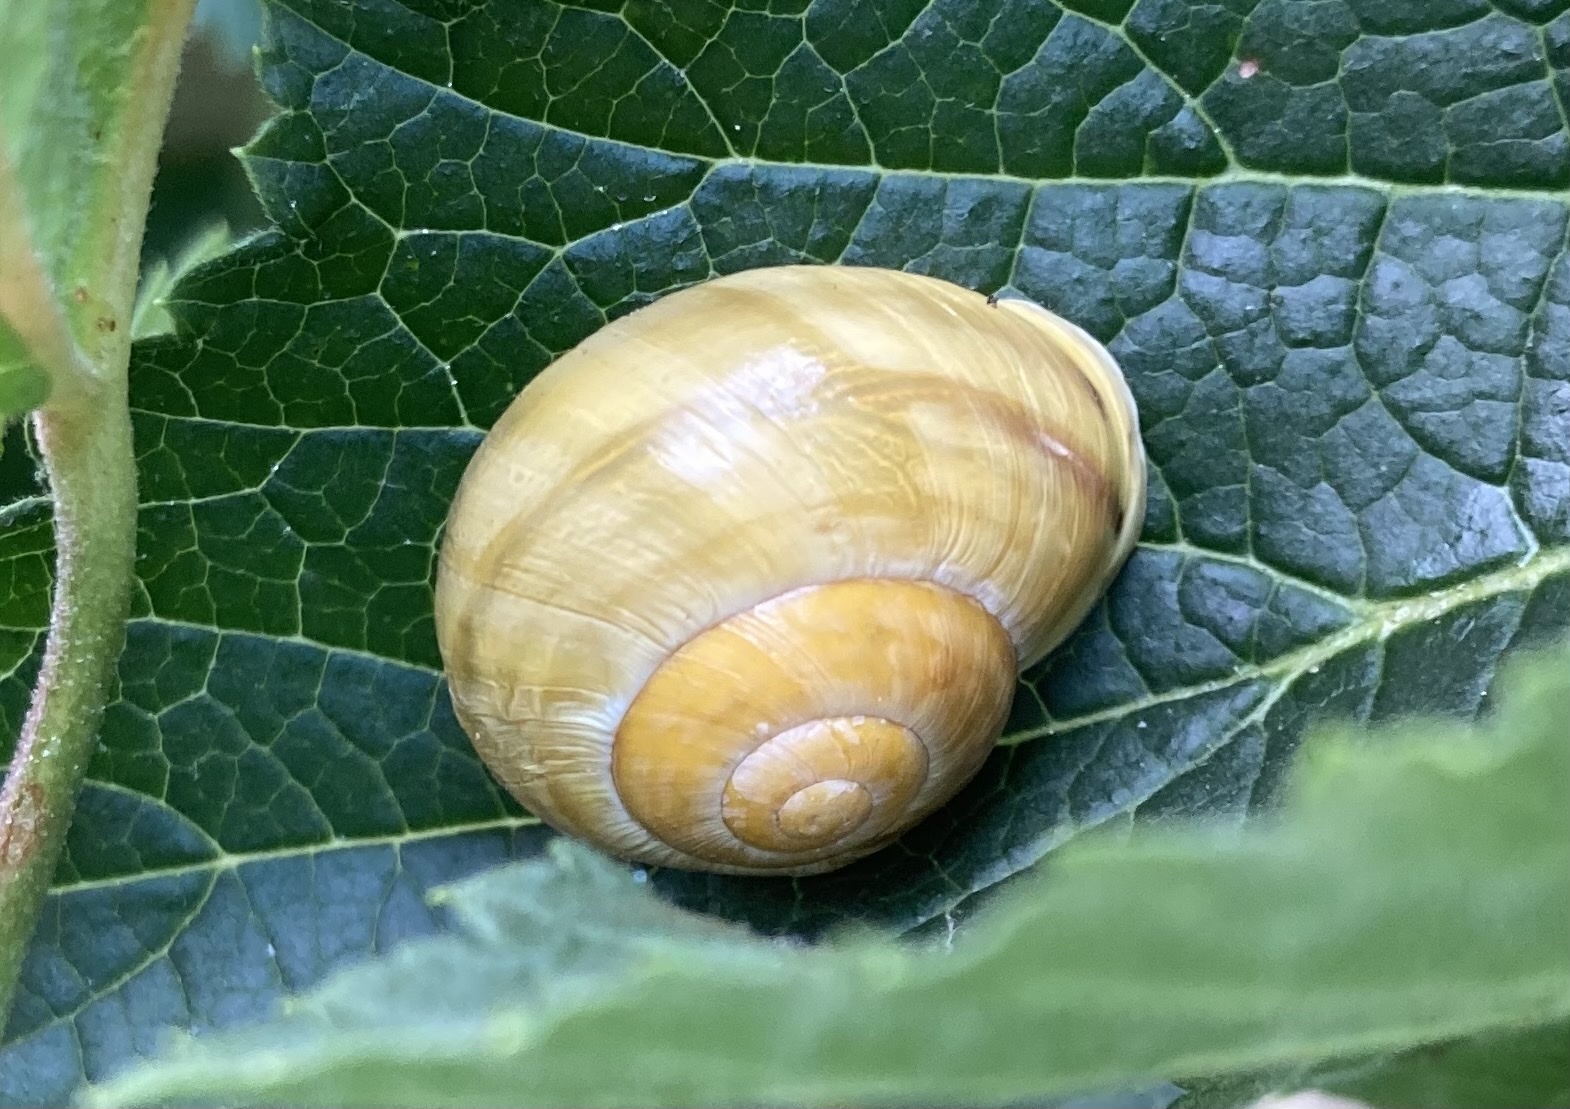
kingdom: Animalia
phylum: Mollusca
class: Gastropoda
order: Stylommatophora
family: Helicidae
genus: Cepaea
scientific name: Cepaea hortensis
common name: White-lip gardensnail
